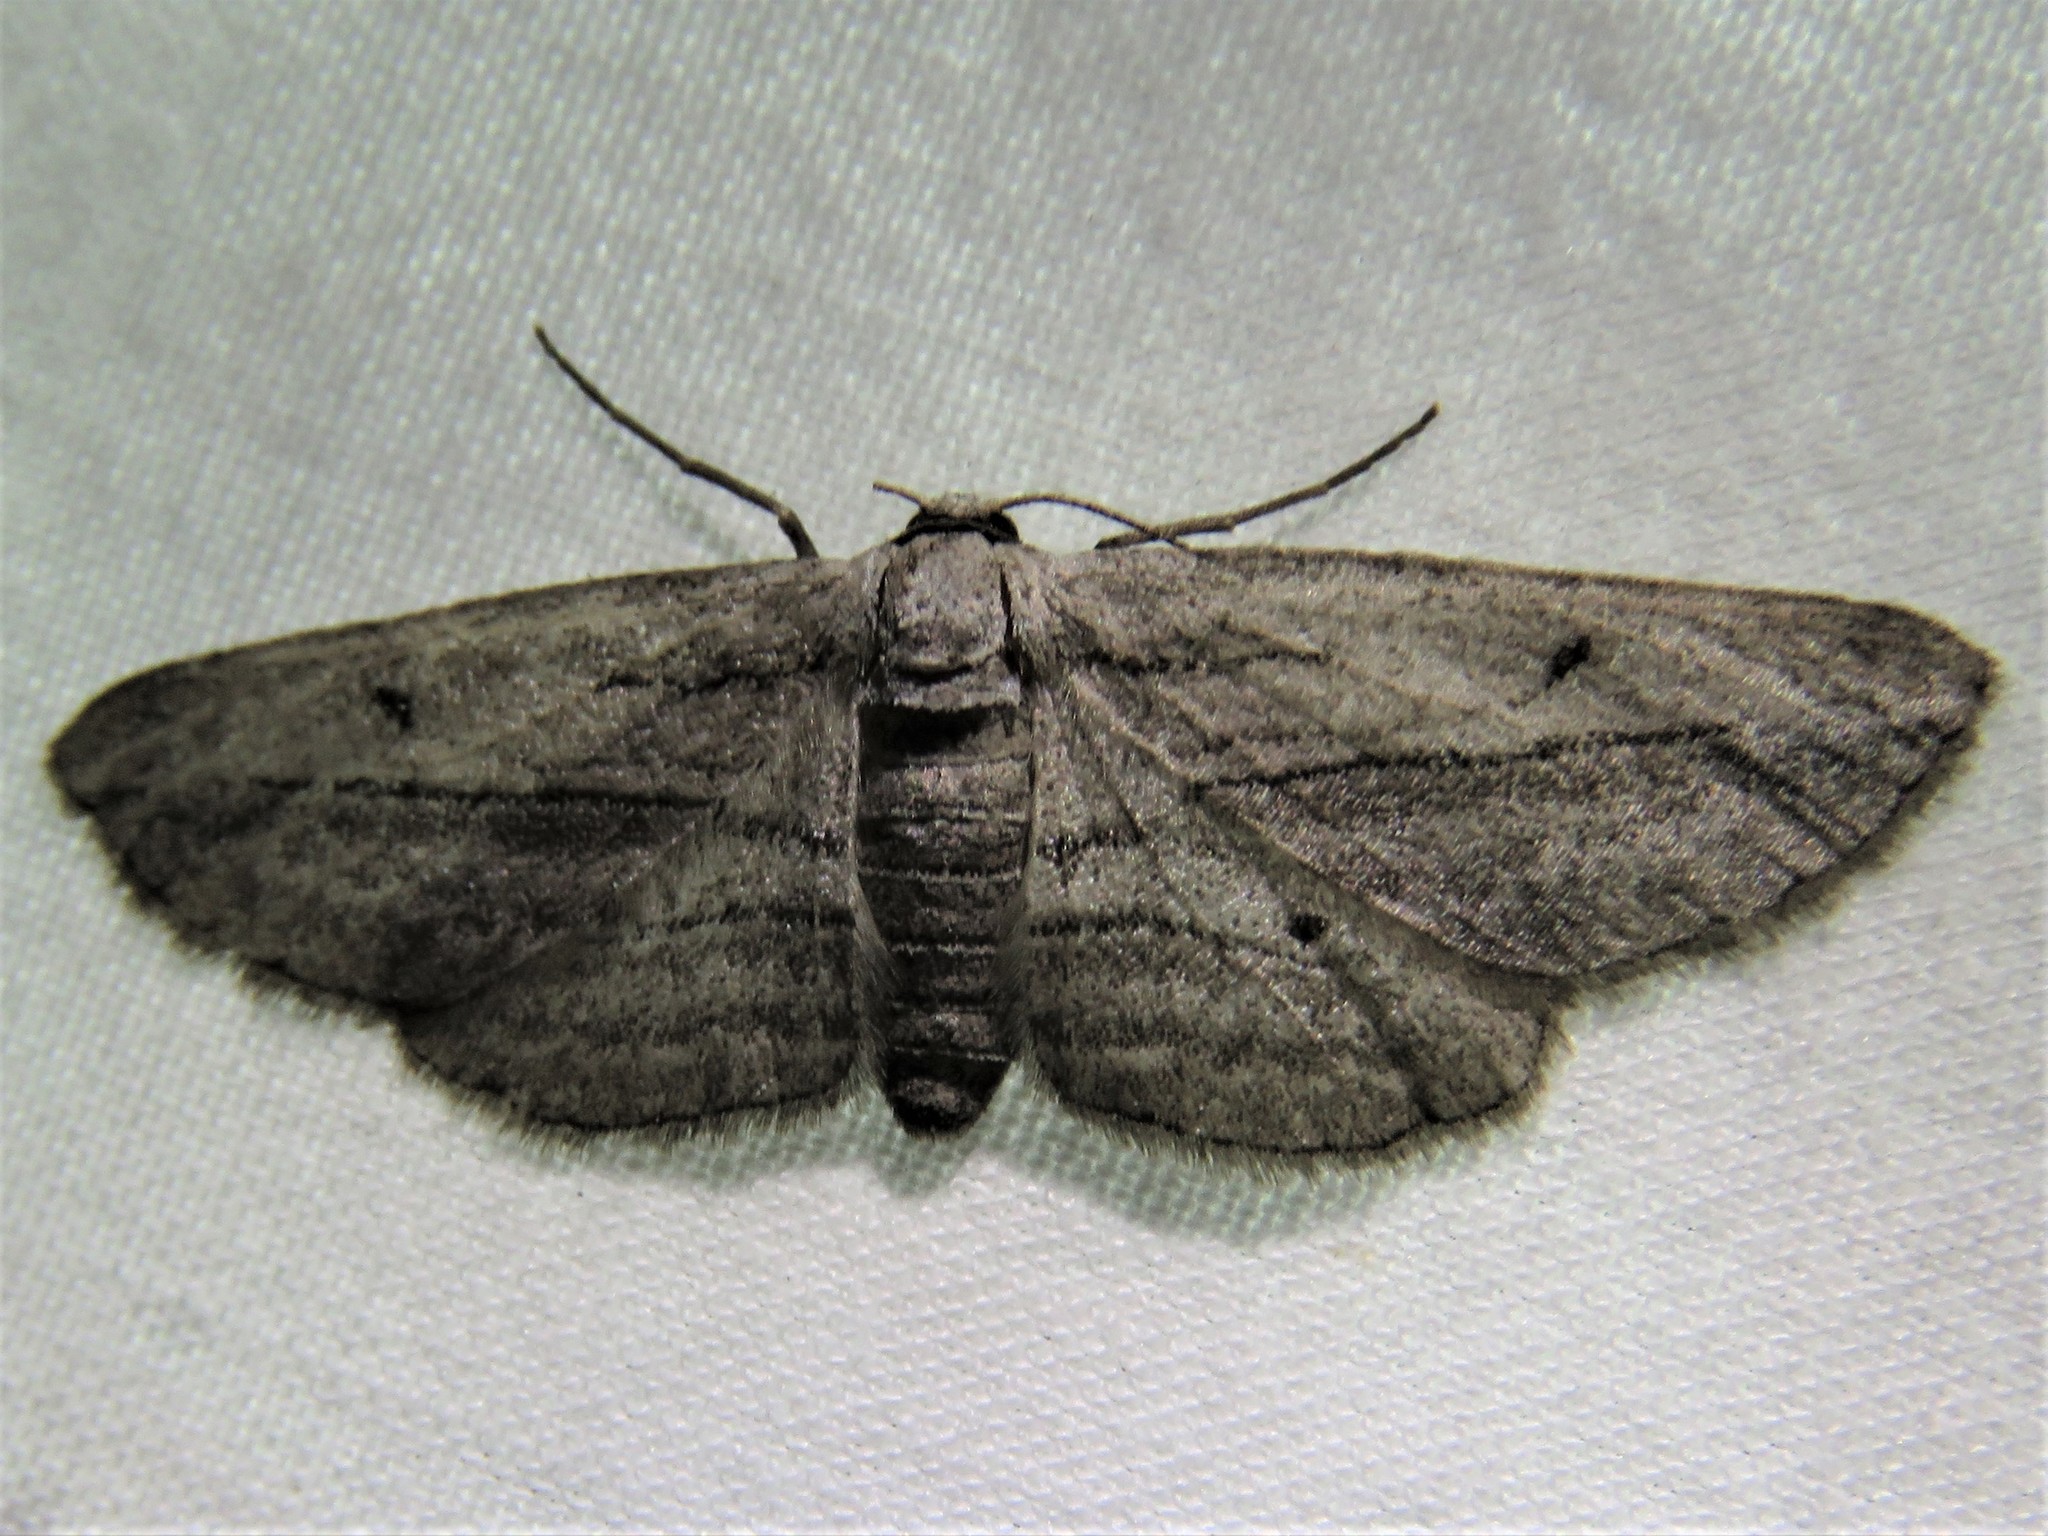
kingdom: Animalia
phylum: Arthropoda
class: Insecta
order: Lepidoptera
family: Geometridae
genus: Glena
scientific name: Glena quinquelinearia
